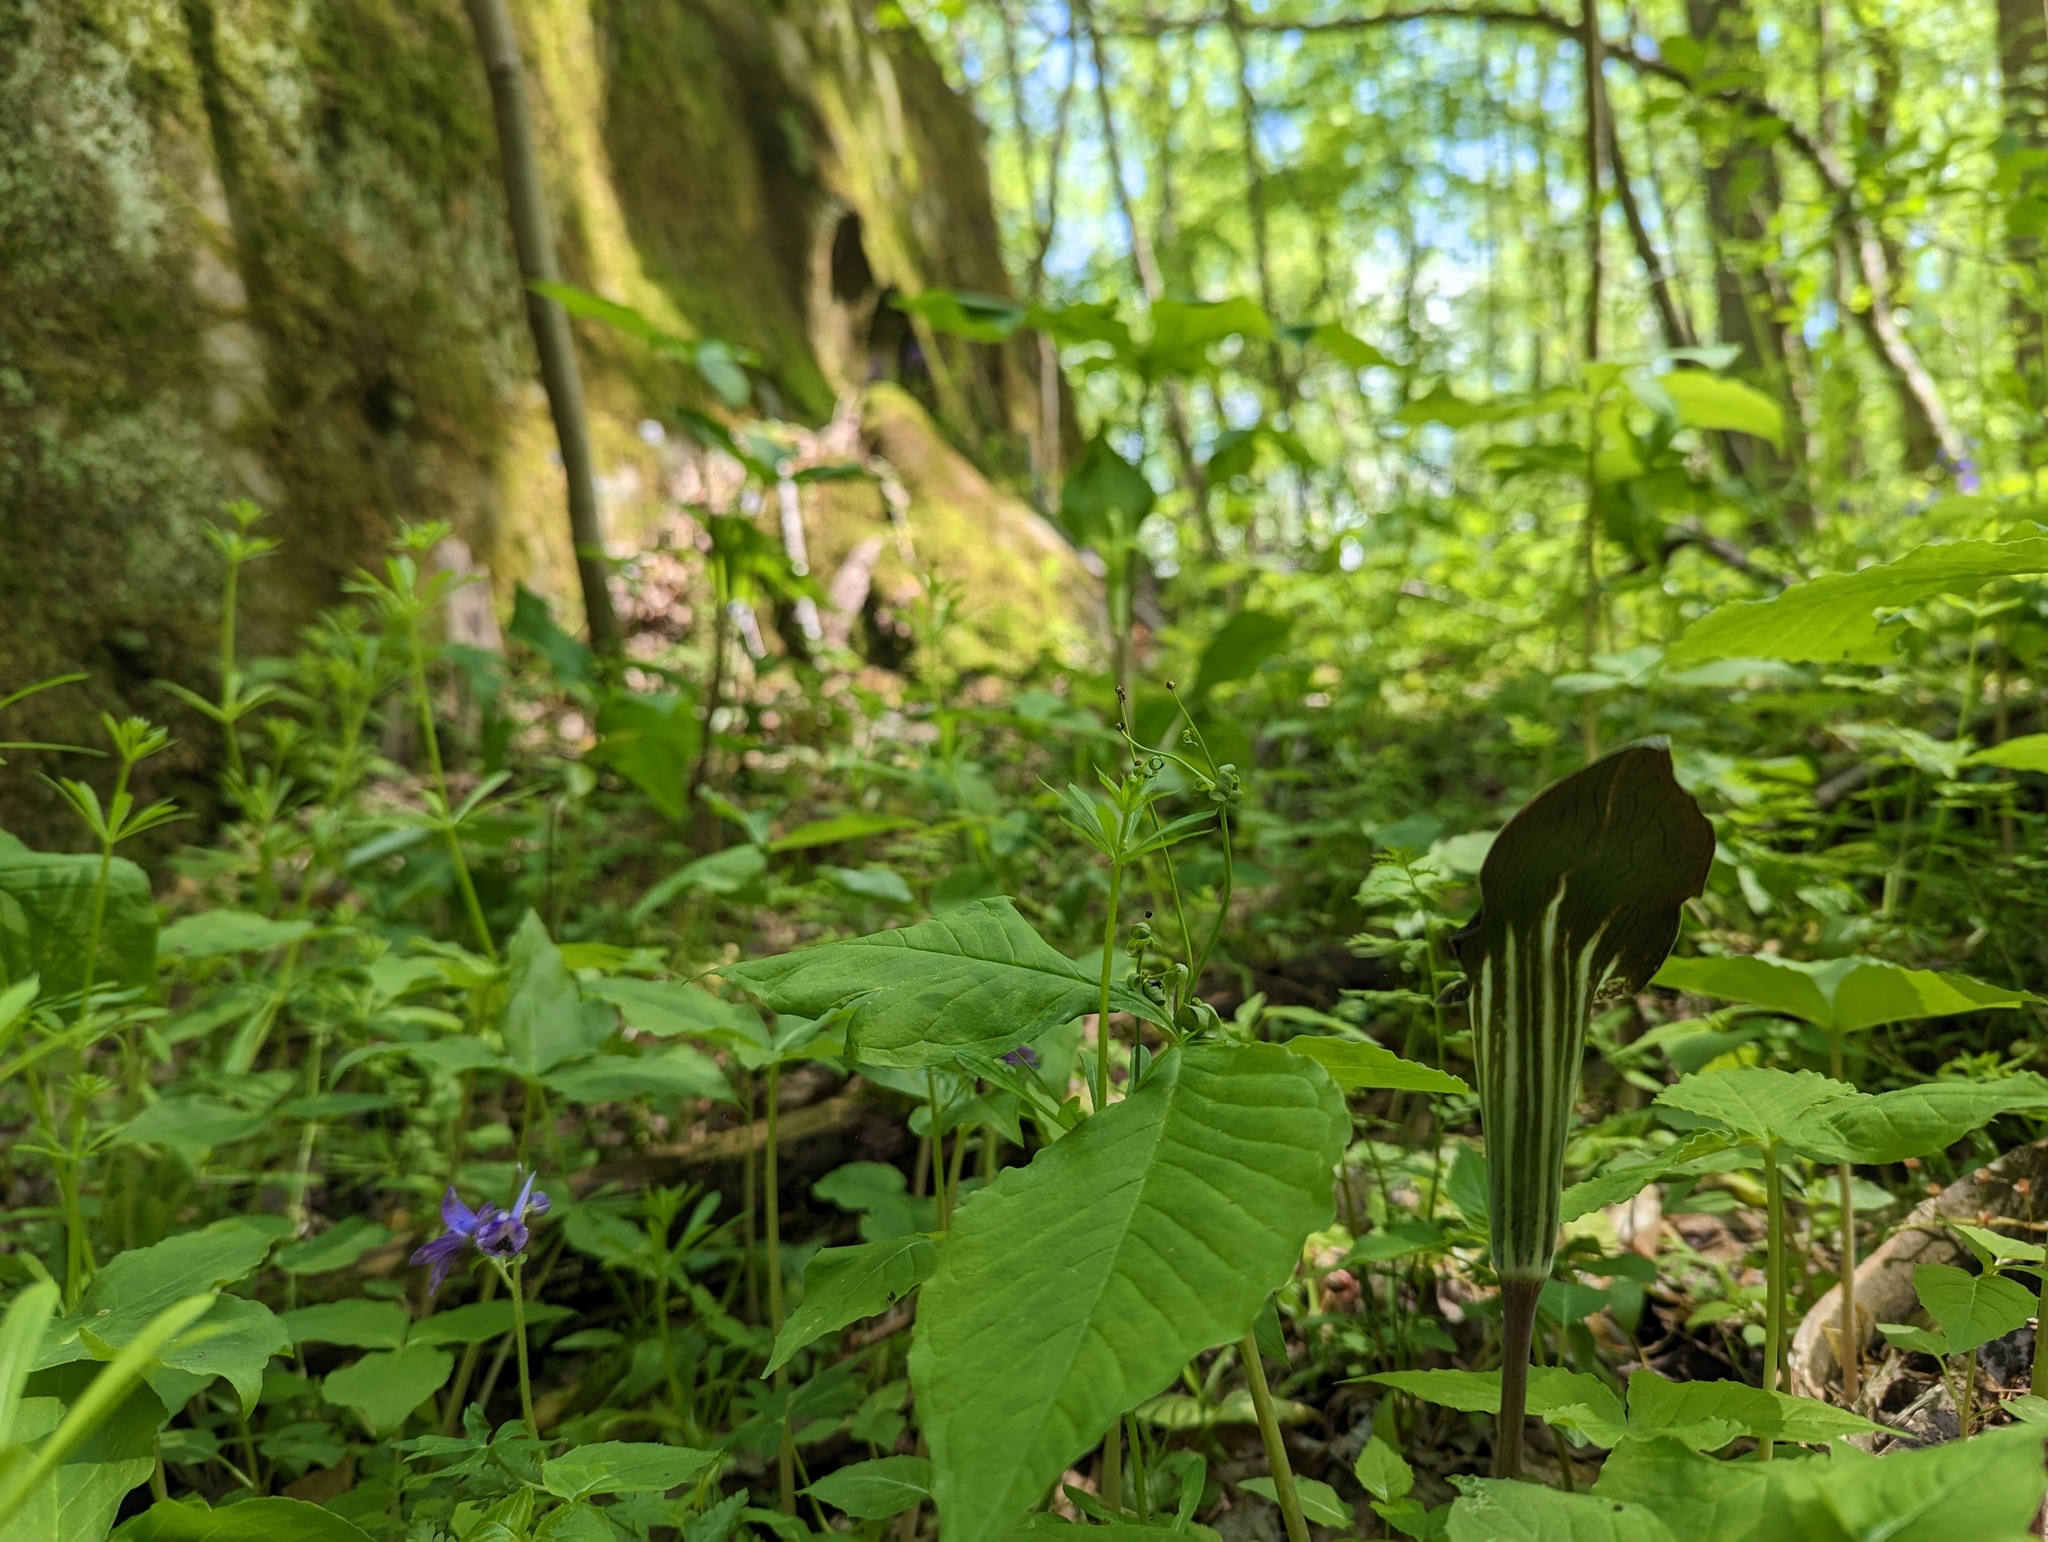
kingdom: Plantae
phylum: Tracheophyta
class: Liliopsida
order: Alismatales
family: Araceae
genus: Arisaema
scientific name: Arisaema triphyllum
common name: Jack-in-the-pulpit
